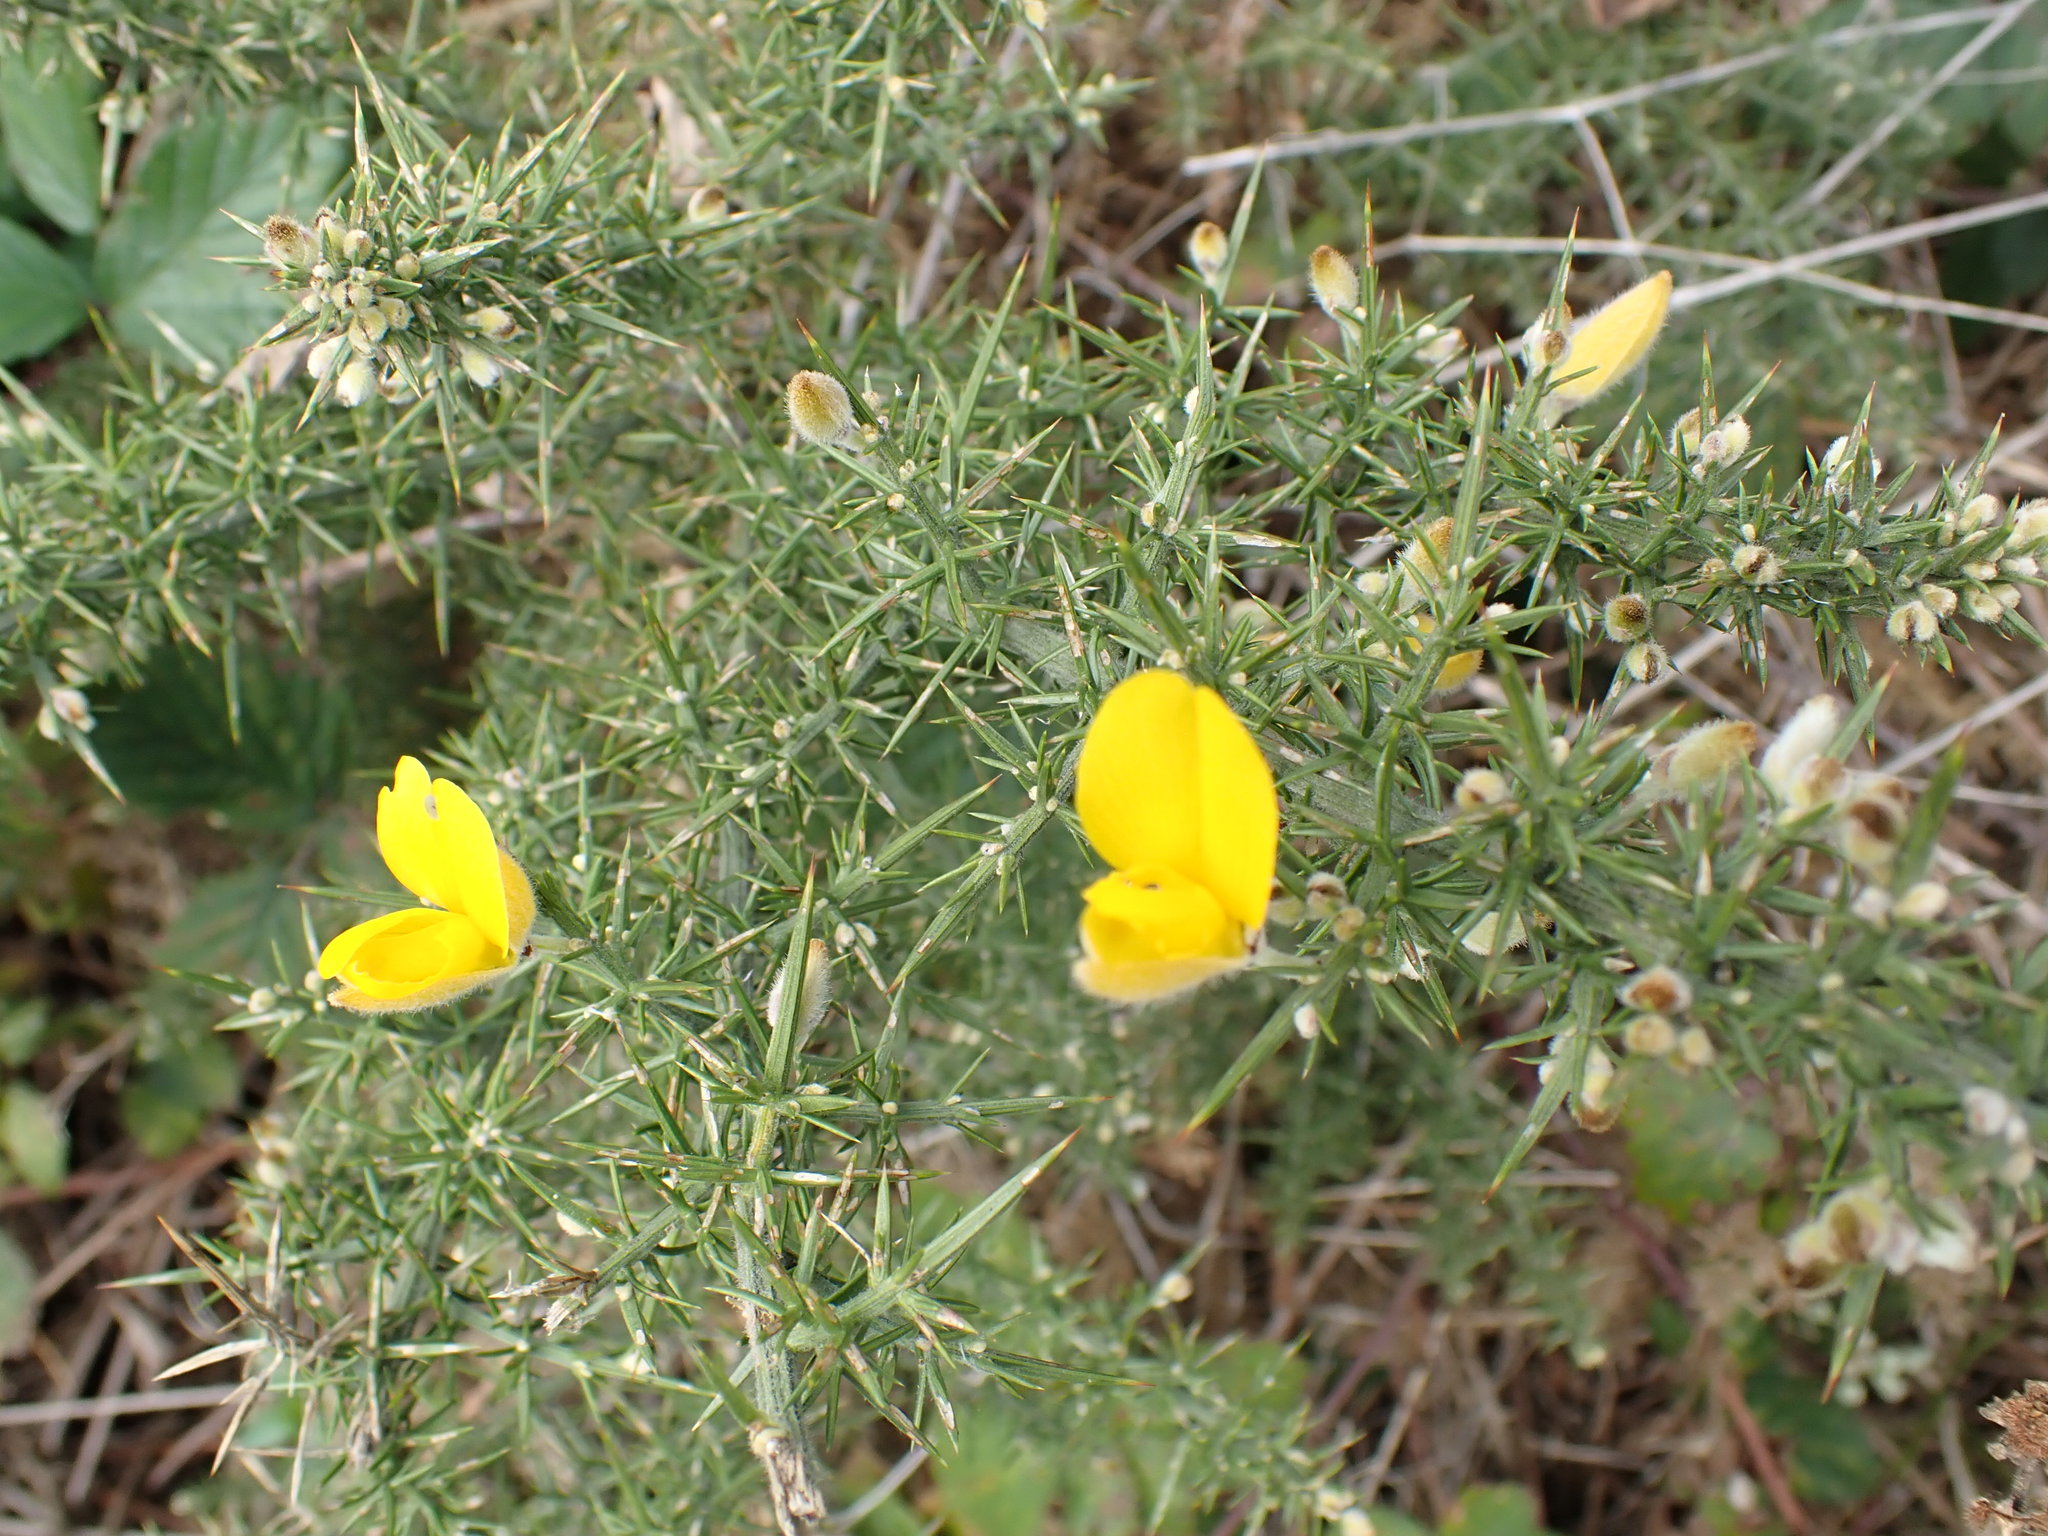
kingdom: Plantae
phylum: Tracheophyta
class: Magnoliopsida
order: Fabales
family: Fabaceae
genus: Ulex
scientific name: Ulex europaeus
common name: Common gorse
